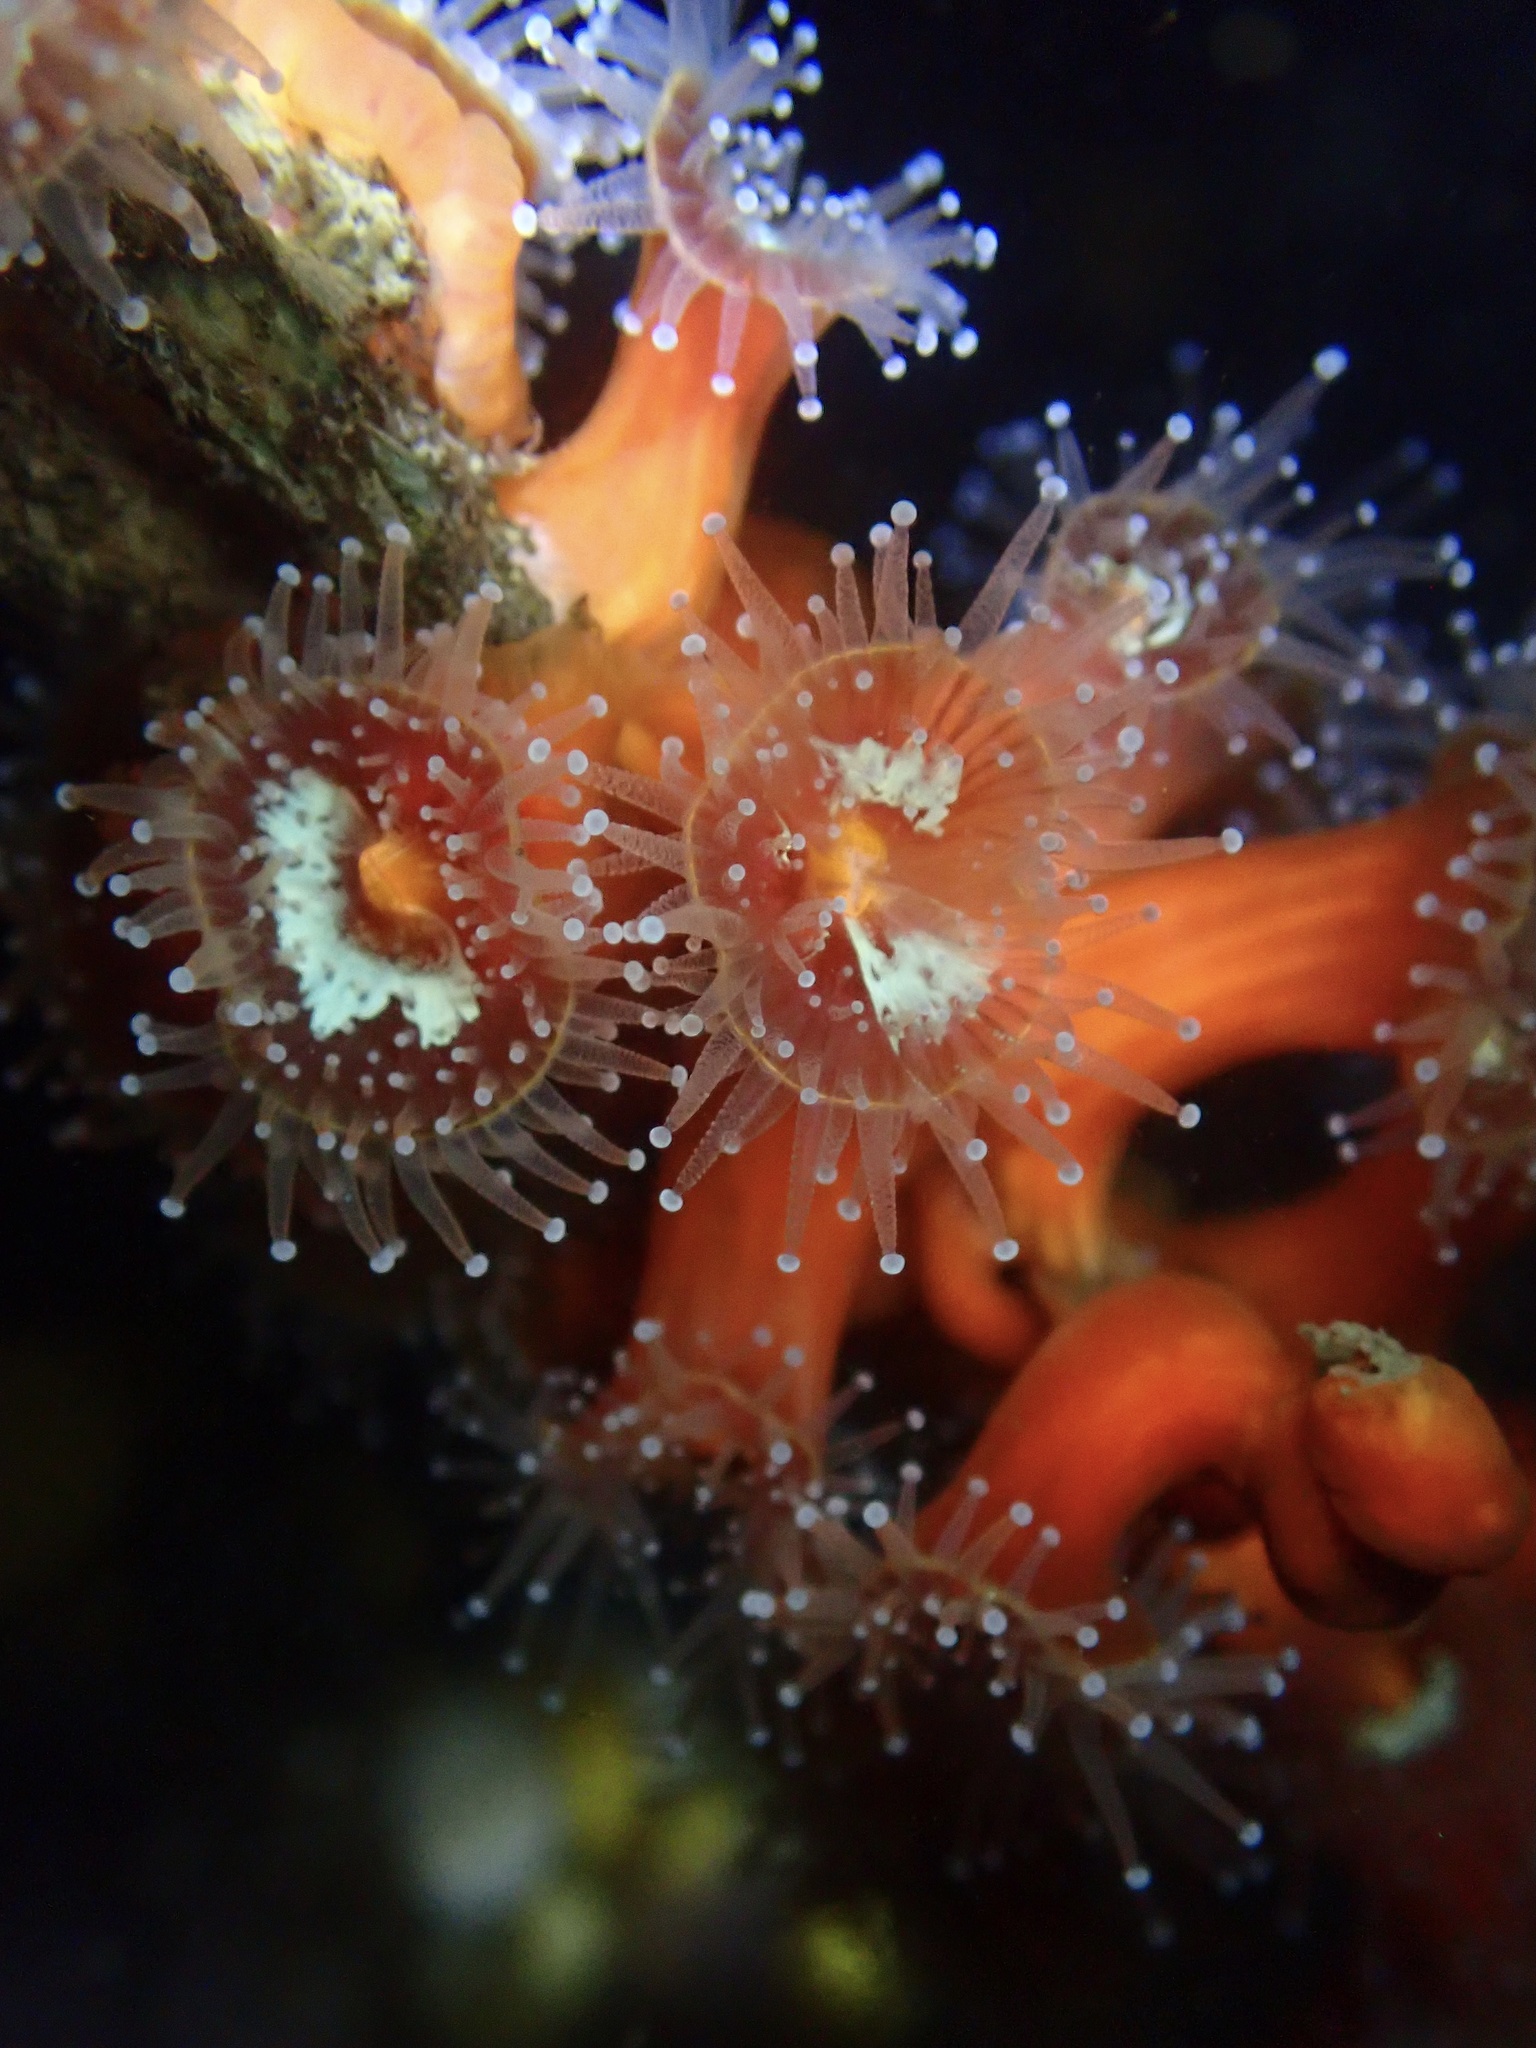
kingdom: Animalia
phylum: Cnidaria
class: Anthozoa
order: Corallimorpharia
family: Corallimorphidae
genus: Corynactis
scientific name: Corynactis californica
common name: Strawberry corallimorpharian
